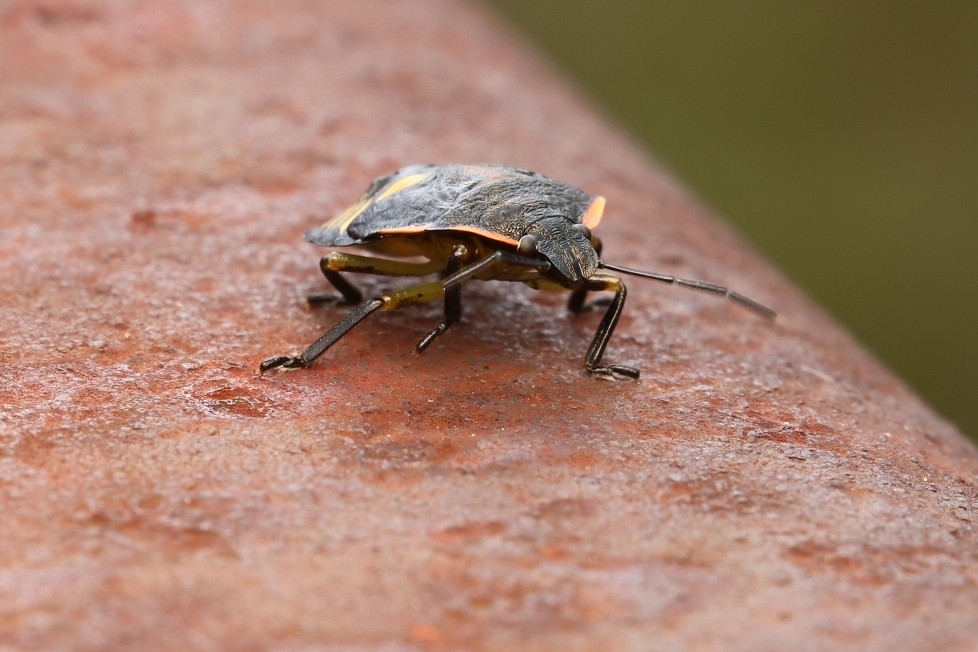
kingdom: Animalia
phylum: Arthropoda
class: Insecta
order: Hemiptera
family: Pentatomidae
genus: Chinavia
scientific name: Chinavia hilaris
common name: Green stink bug
